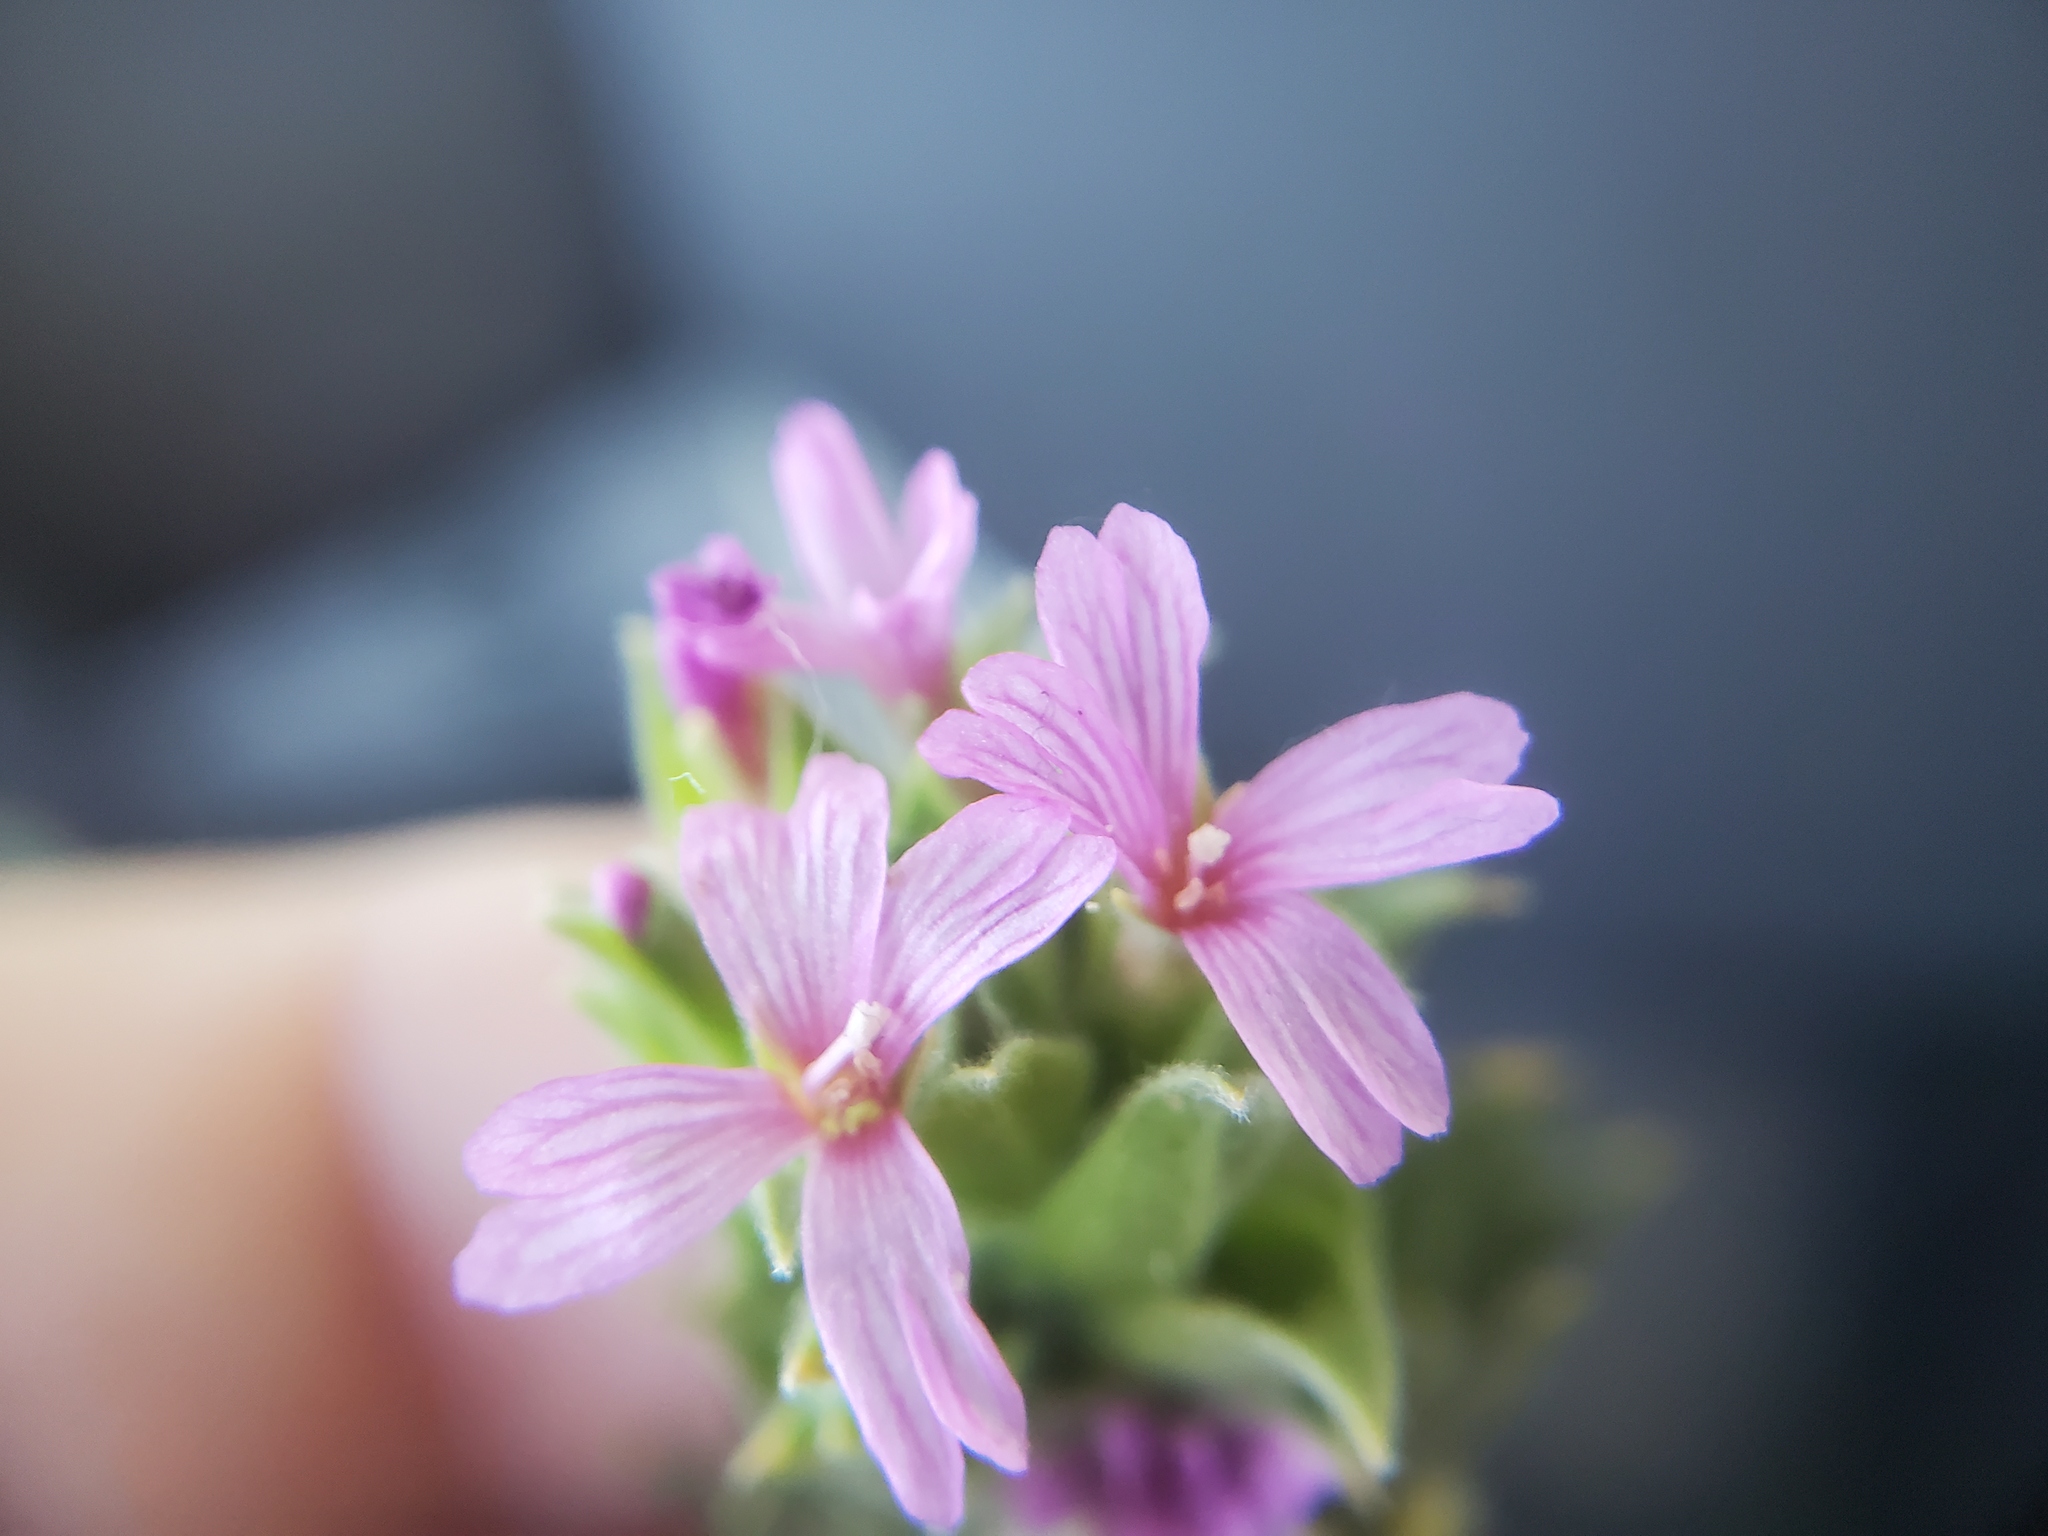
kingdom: Plantae
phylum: Tracheophyta
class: Magnoliopsida
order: Myrtales
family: Onagraceae
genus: Epilobium
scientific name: Epilobium densiflorum
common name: Dense spike-primrose
